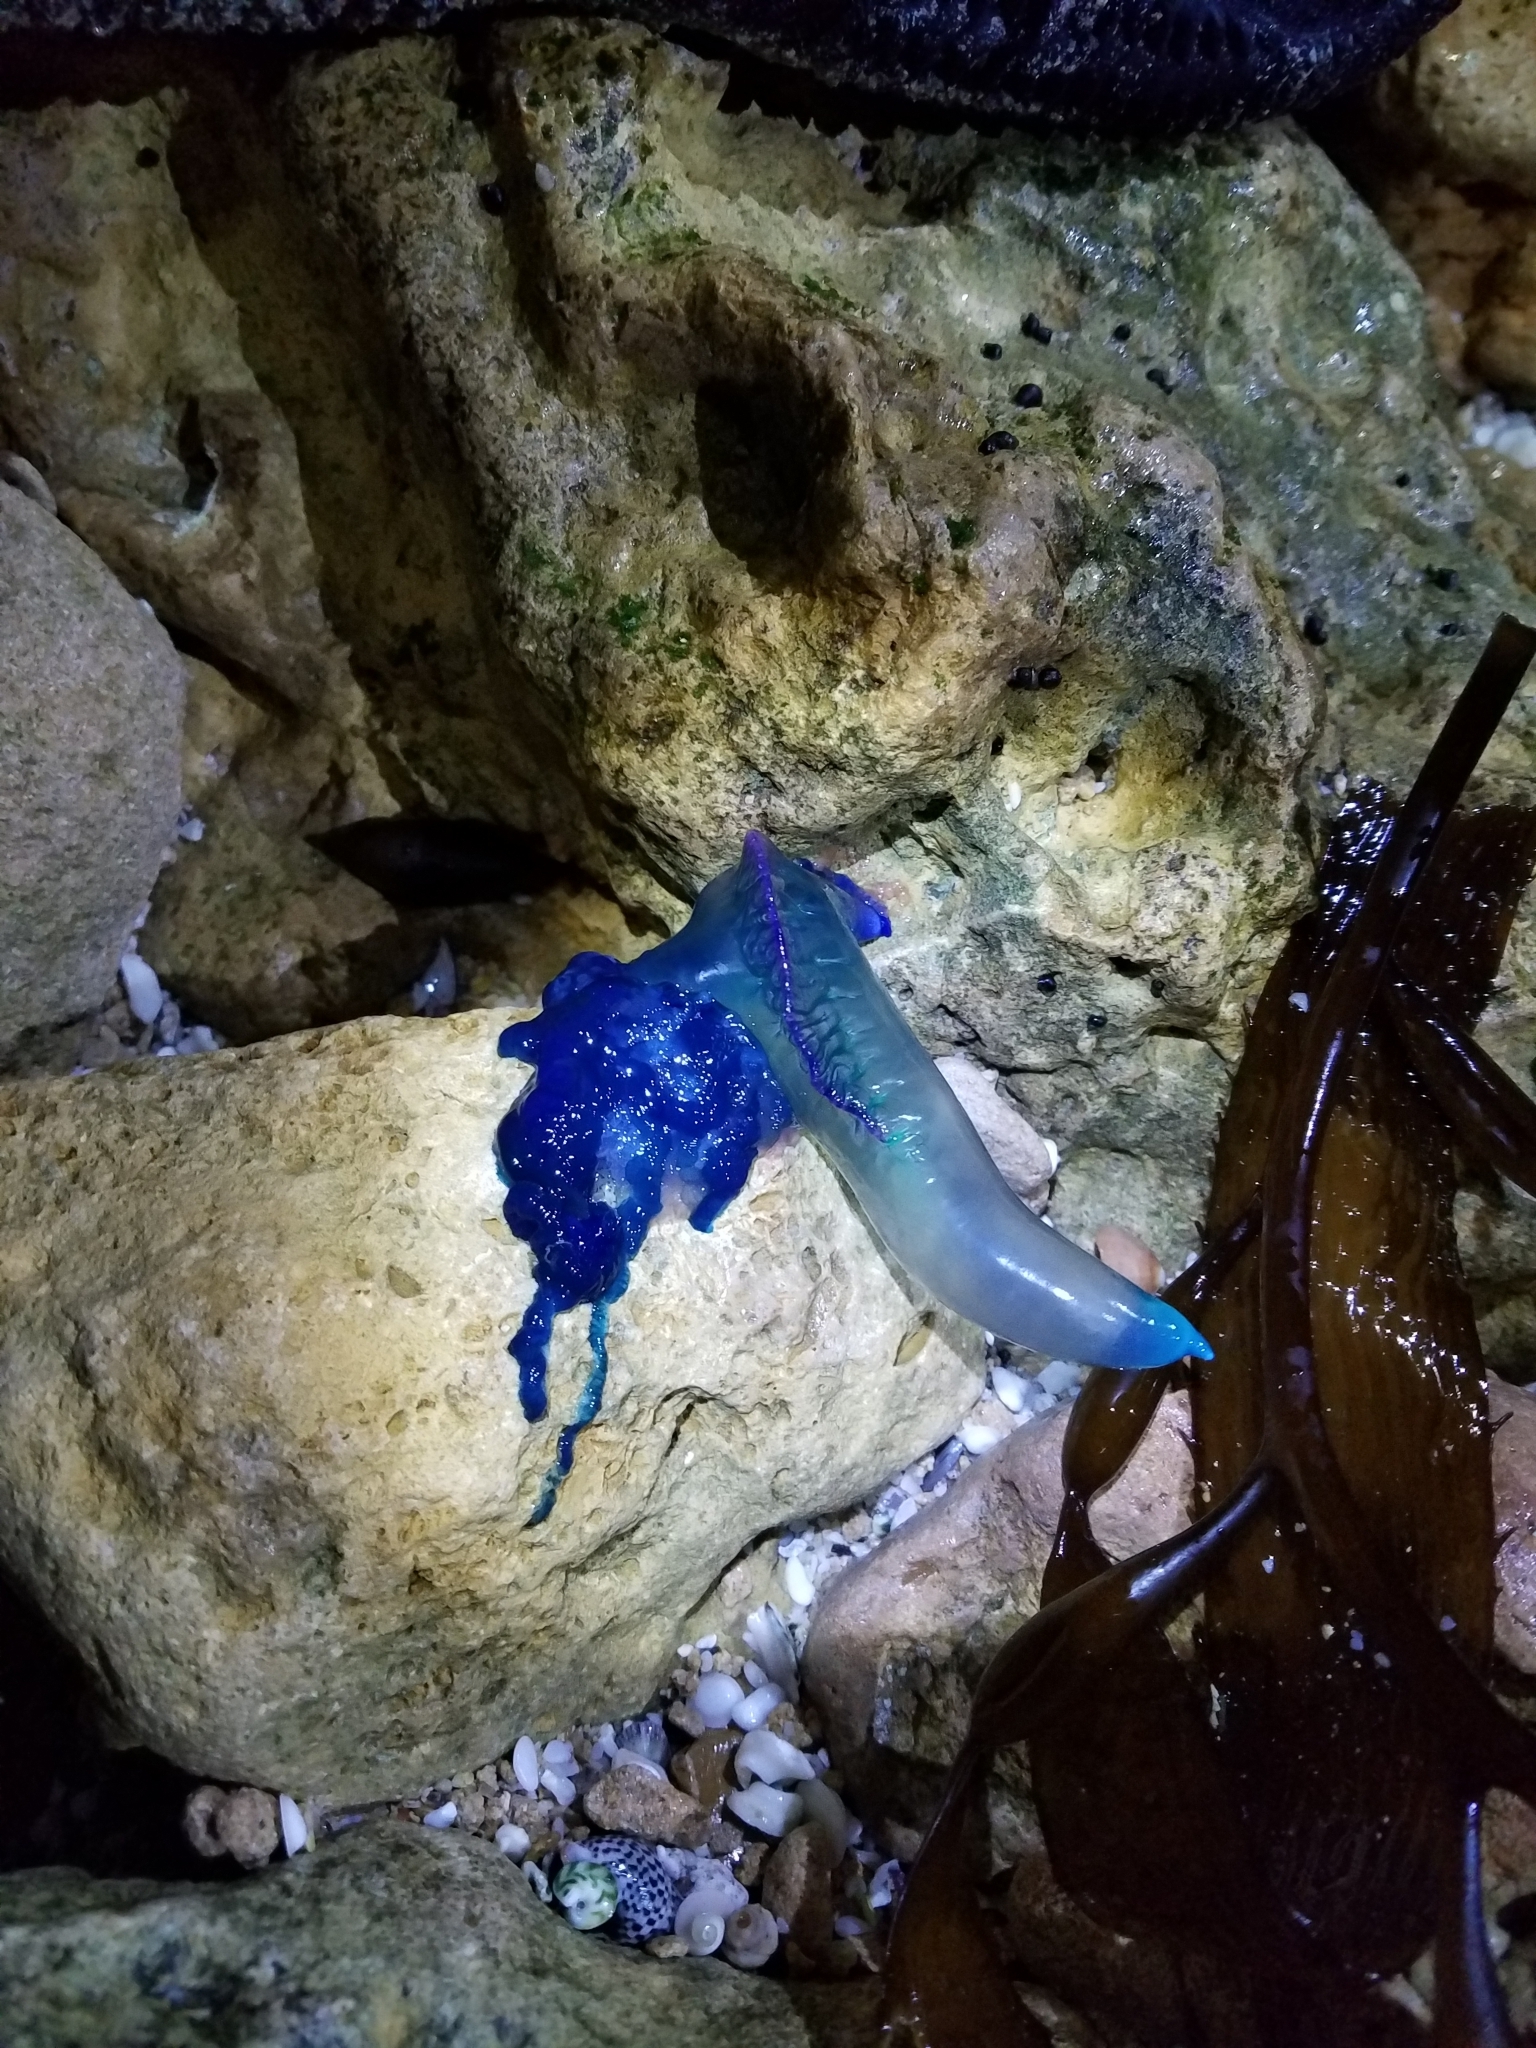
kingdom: Animalia
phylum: Cnidaria
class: Hydrozoa
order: Siphonophorae
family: Physaliidae
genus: Physalia
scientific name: Physalia physalis
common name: Portuguese man-of-war
